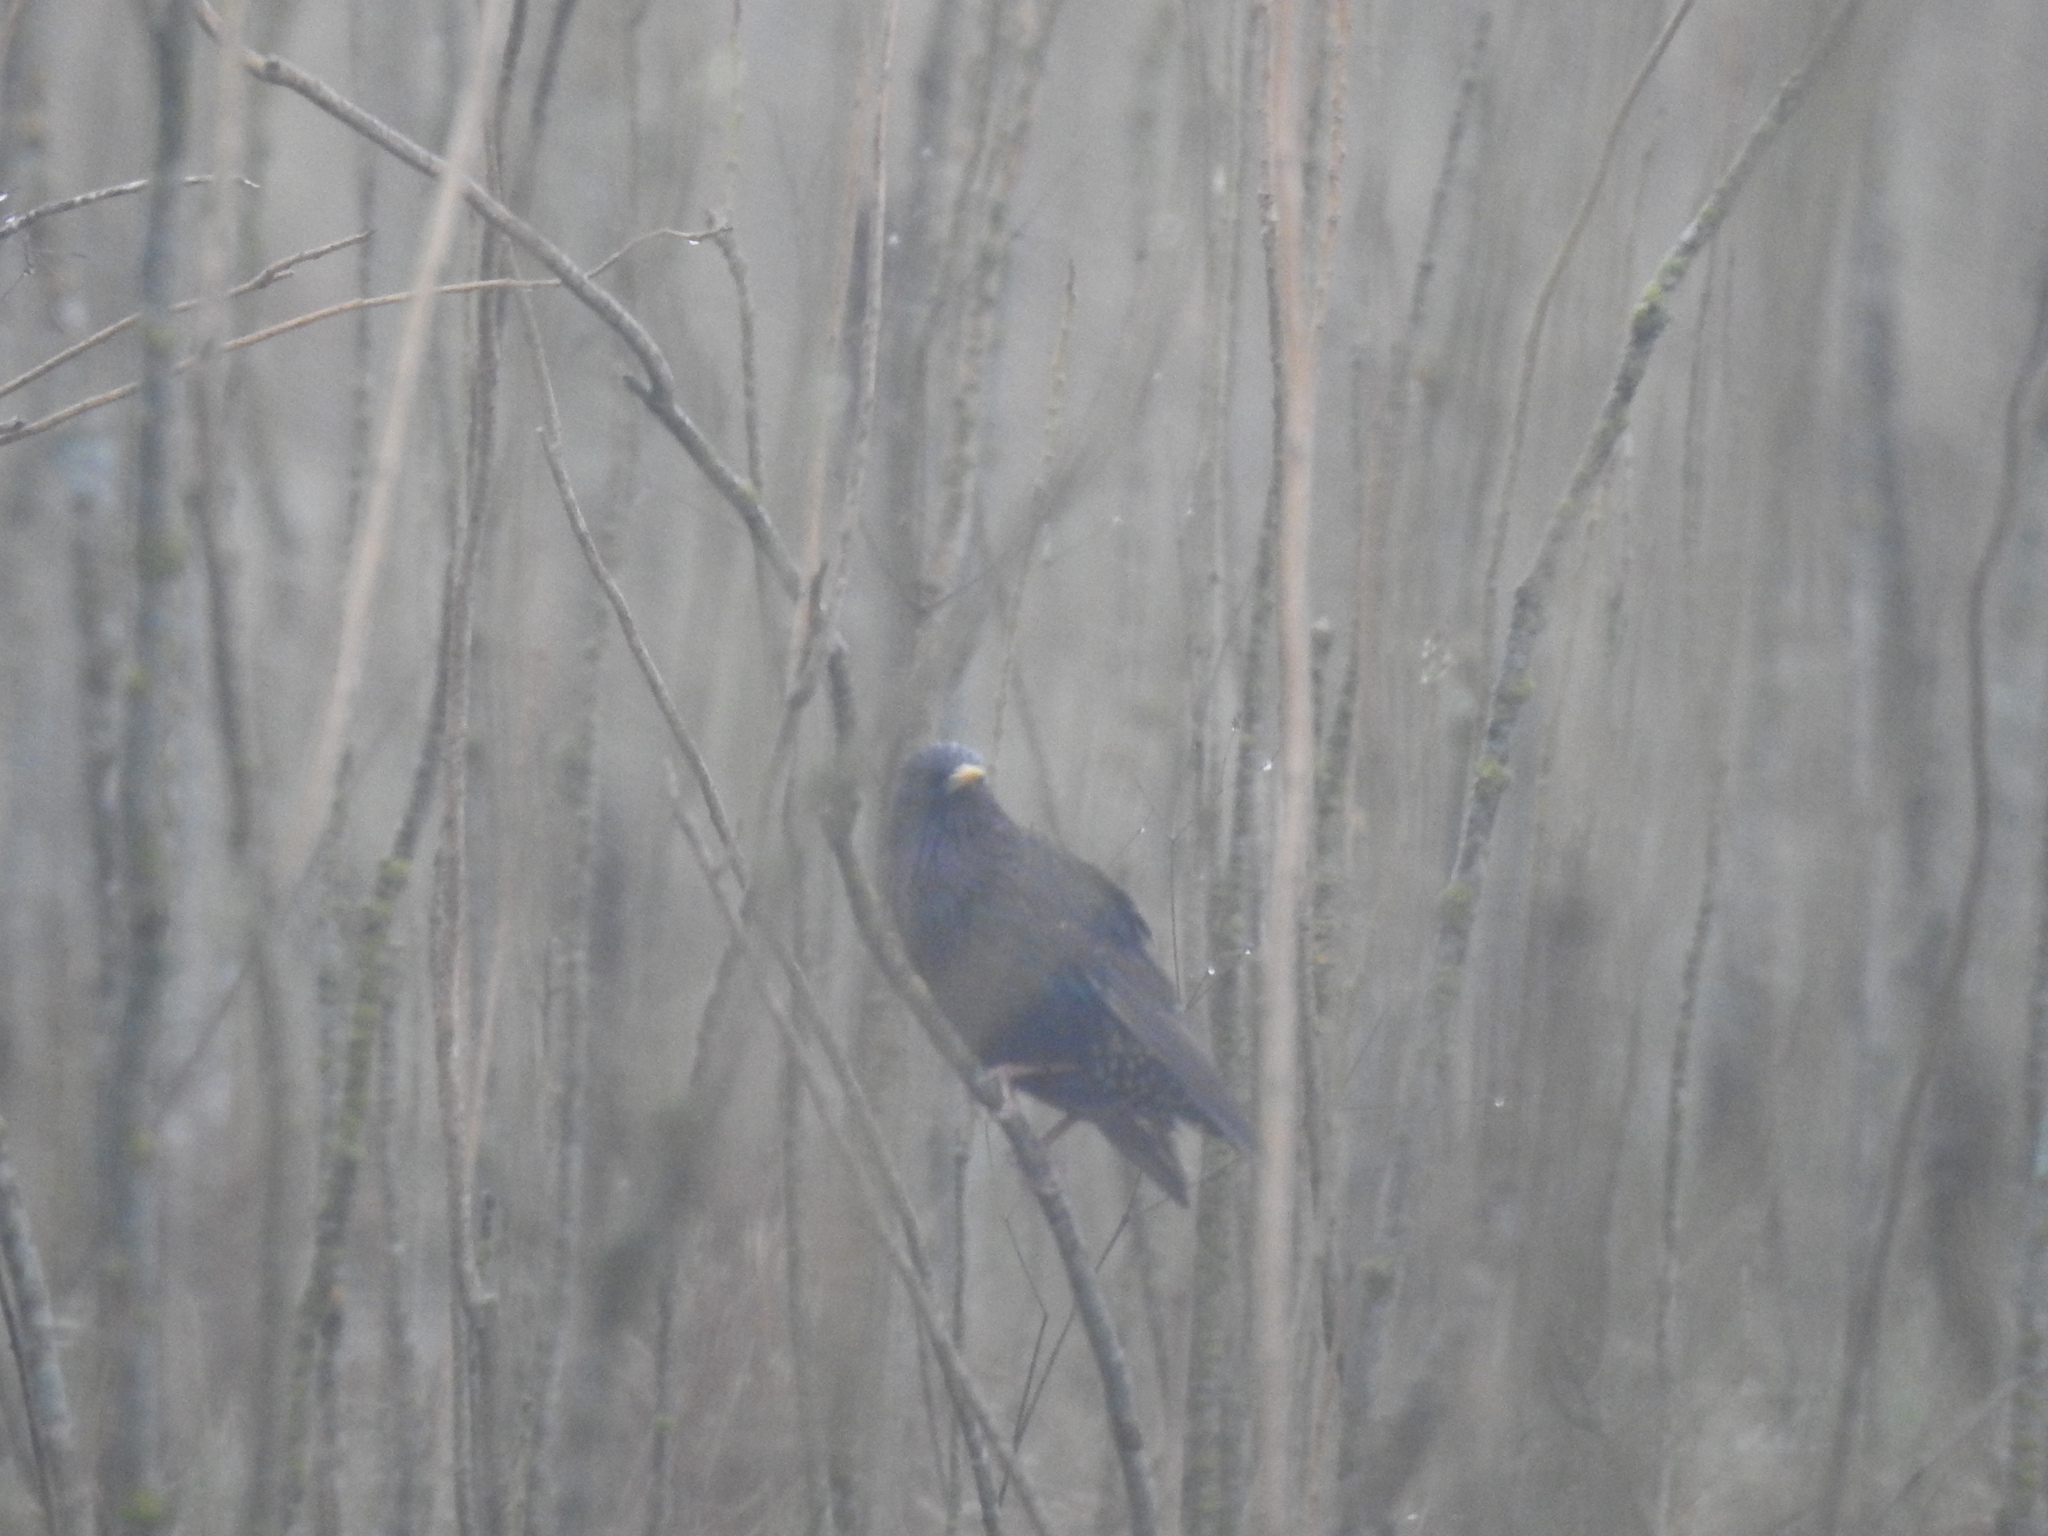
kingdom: Animalia
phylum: Chordata
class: Aves
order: Passeriformes
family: Sturnidae
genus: Sturnus
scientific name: Sturnus vulgaris
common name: Common starling
